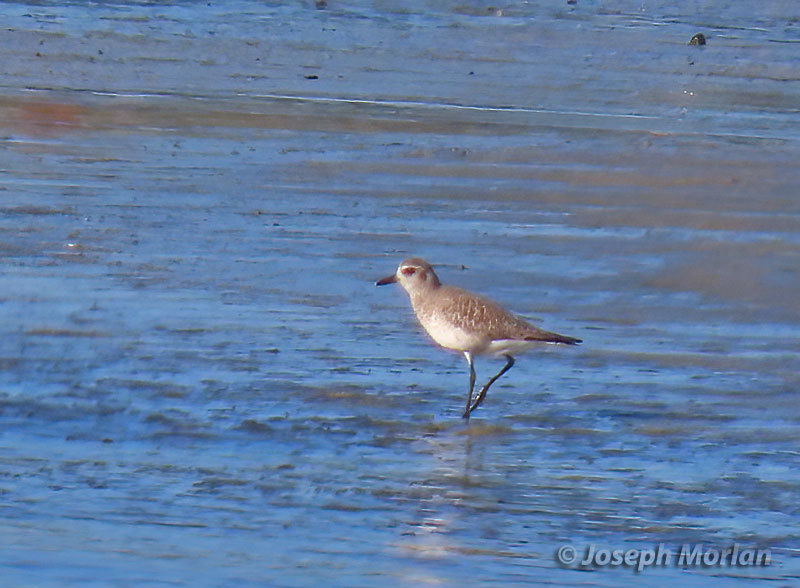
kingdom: Animalia
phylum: Chordata
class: Aves
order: Charadriiformes
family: Charadriidae
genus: Pluvialis
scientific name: Pluvialis squatarola
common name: Grey plover
